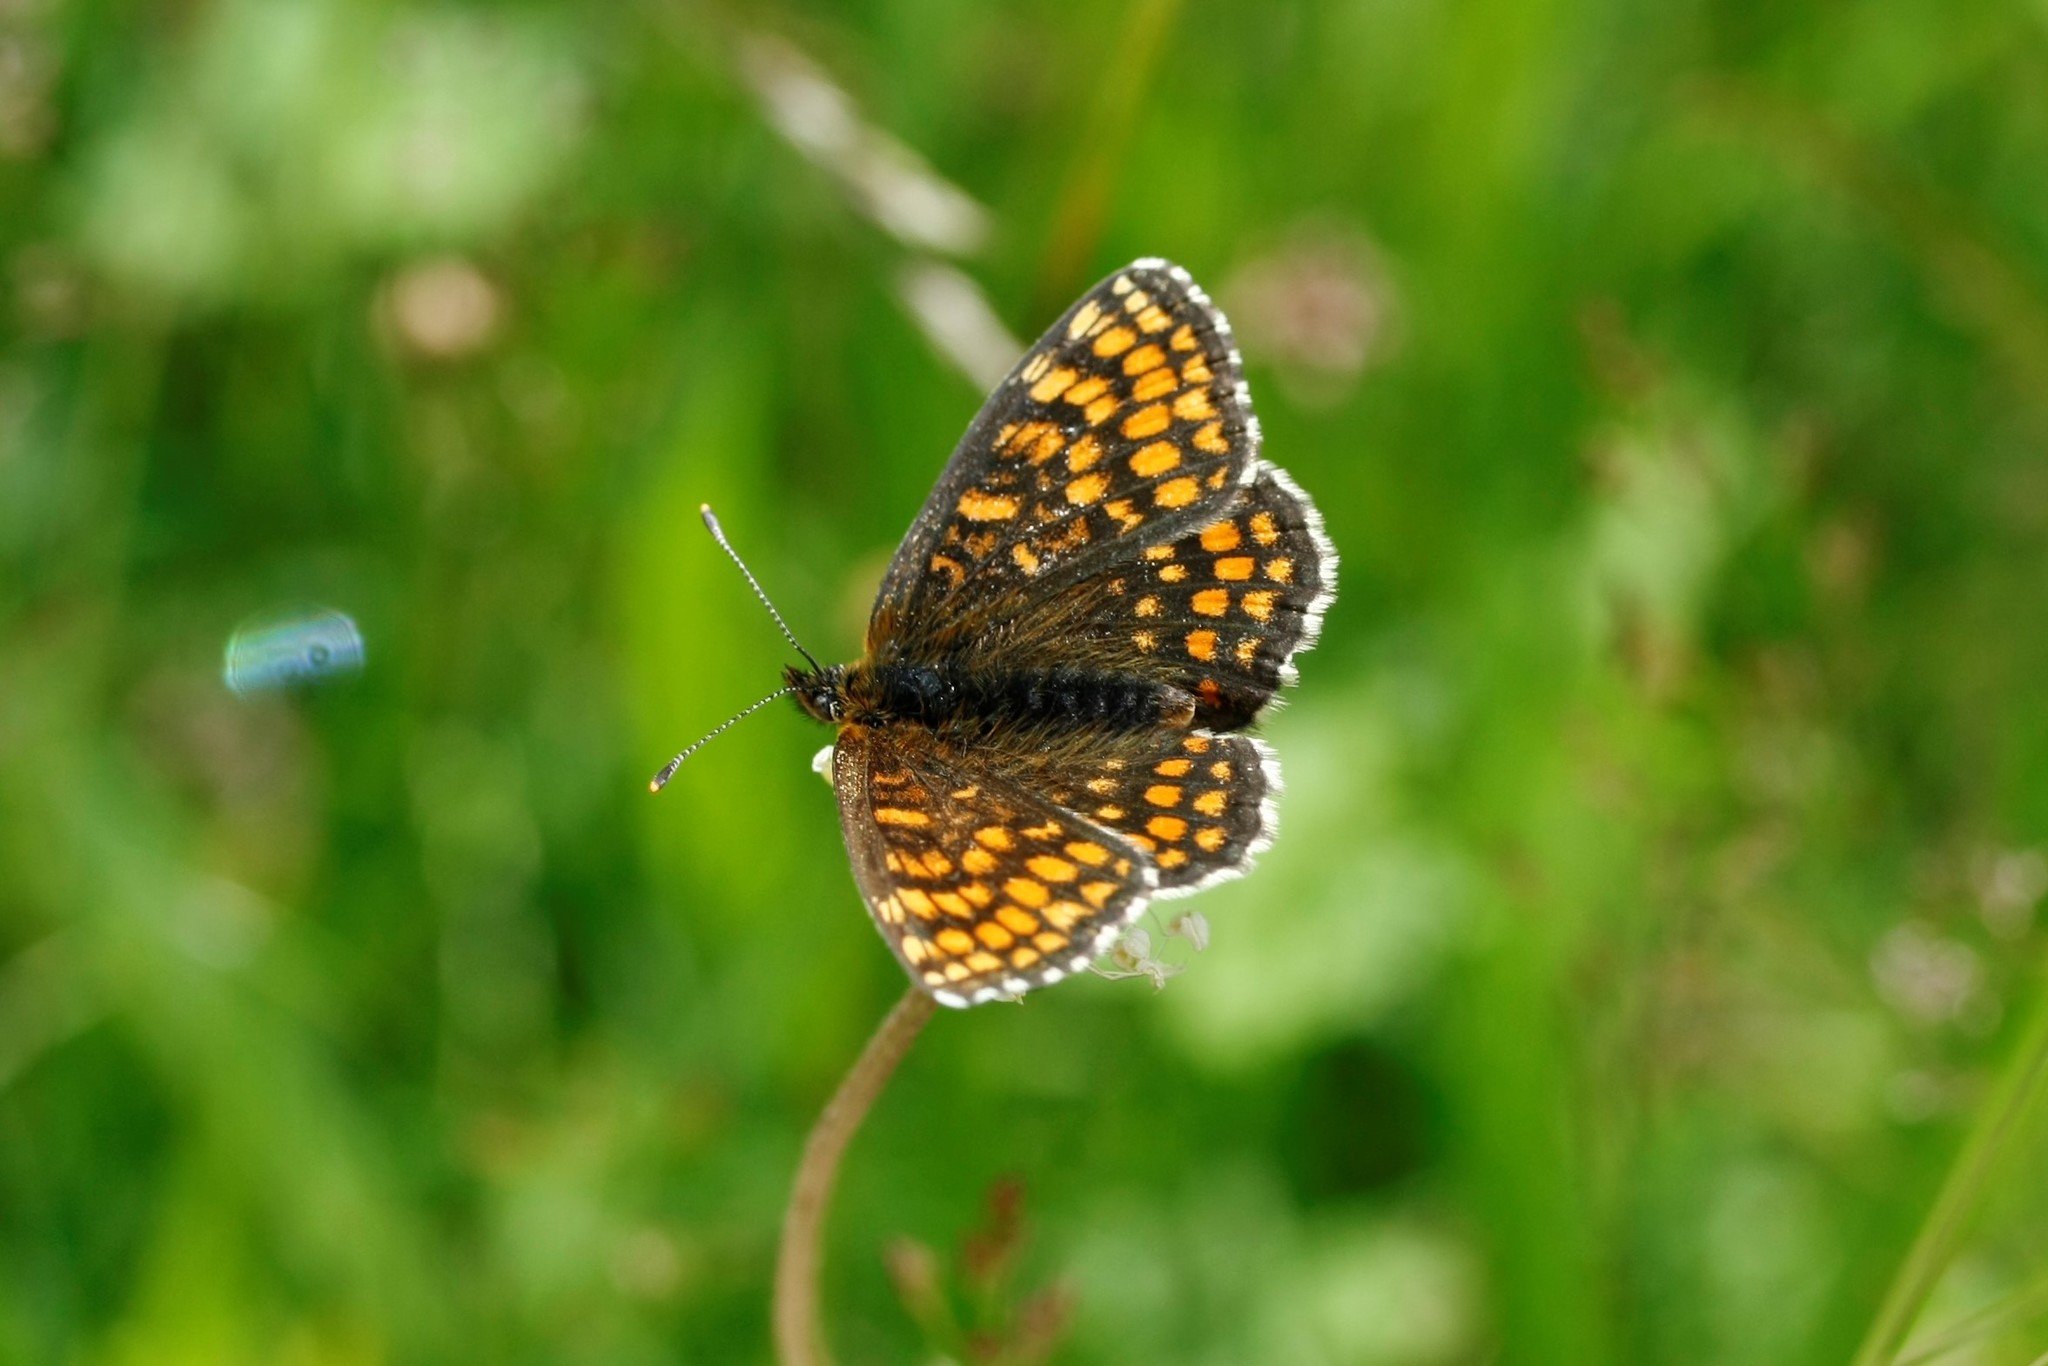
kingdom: Animalia
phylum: Arthropoda
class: Insecta
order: Lepidoptera
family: Nymphalidae
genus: Melitaea
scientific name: Melitaea phoebe
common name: Knapweed fritillary
